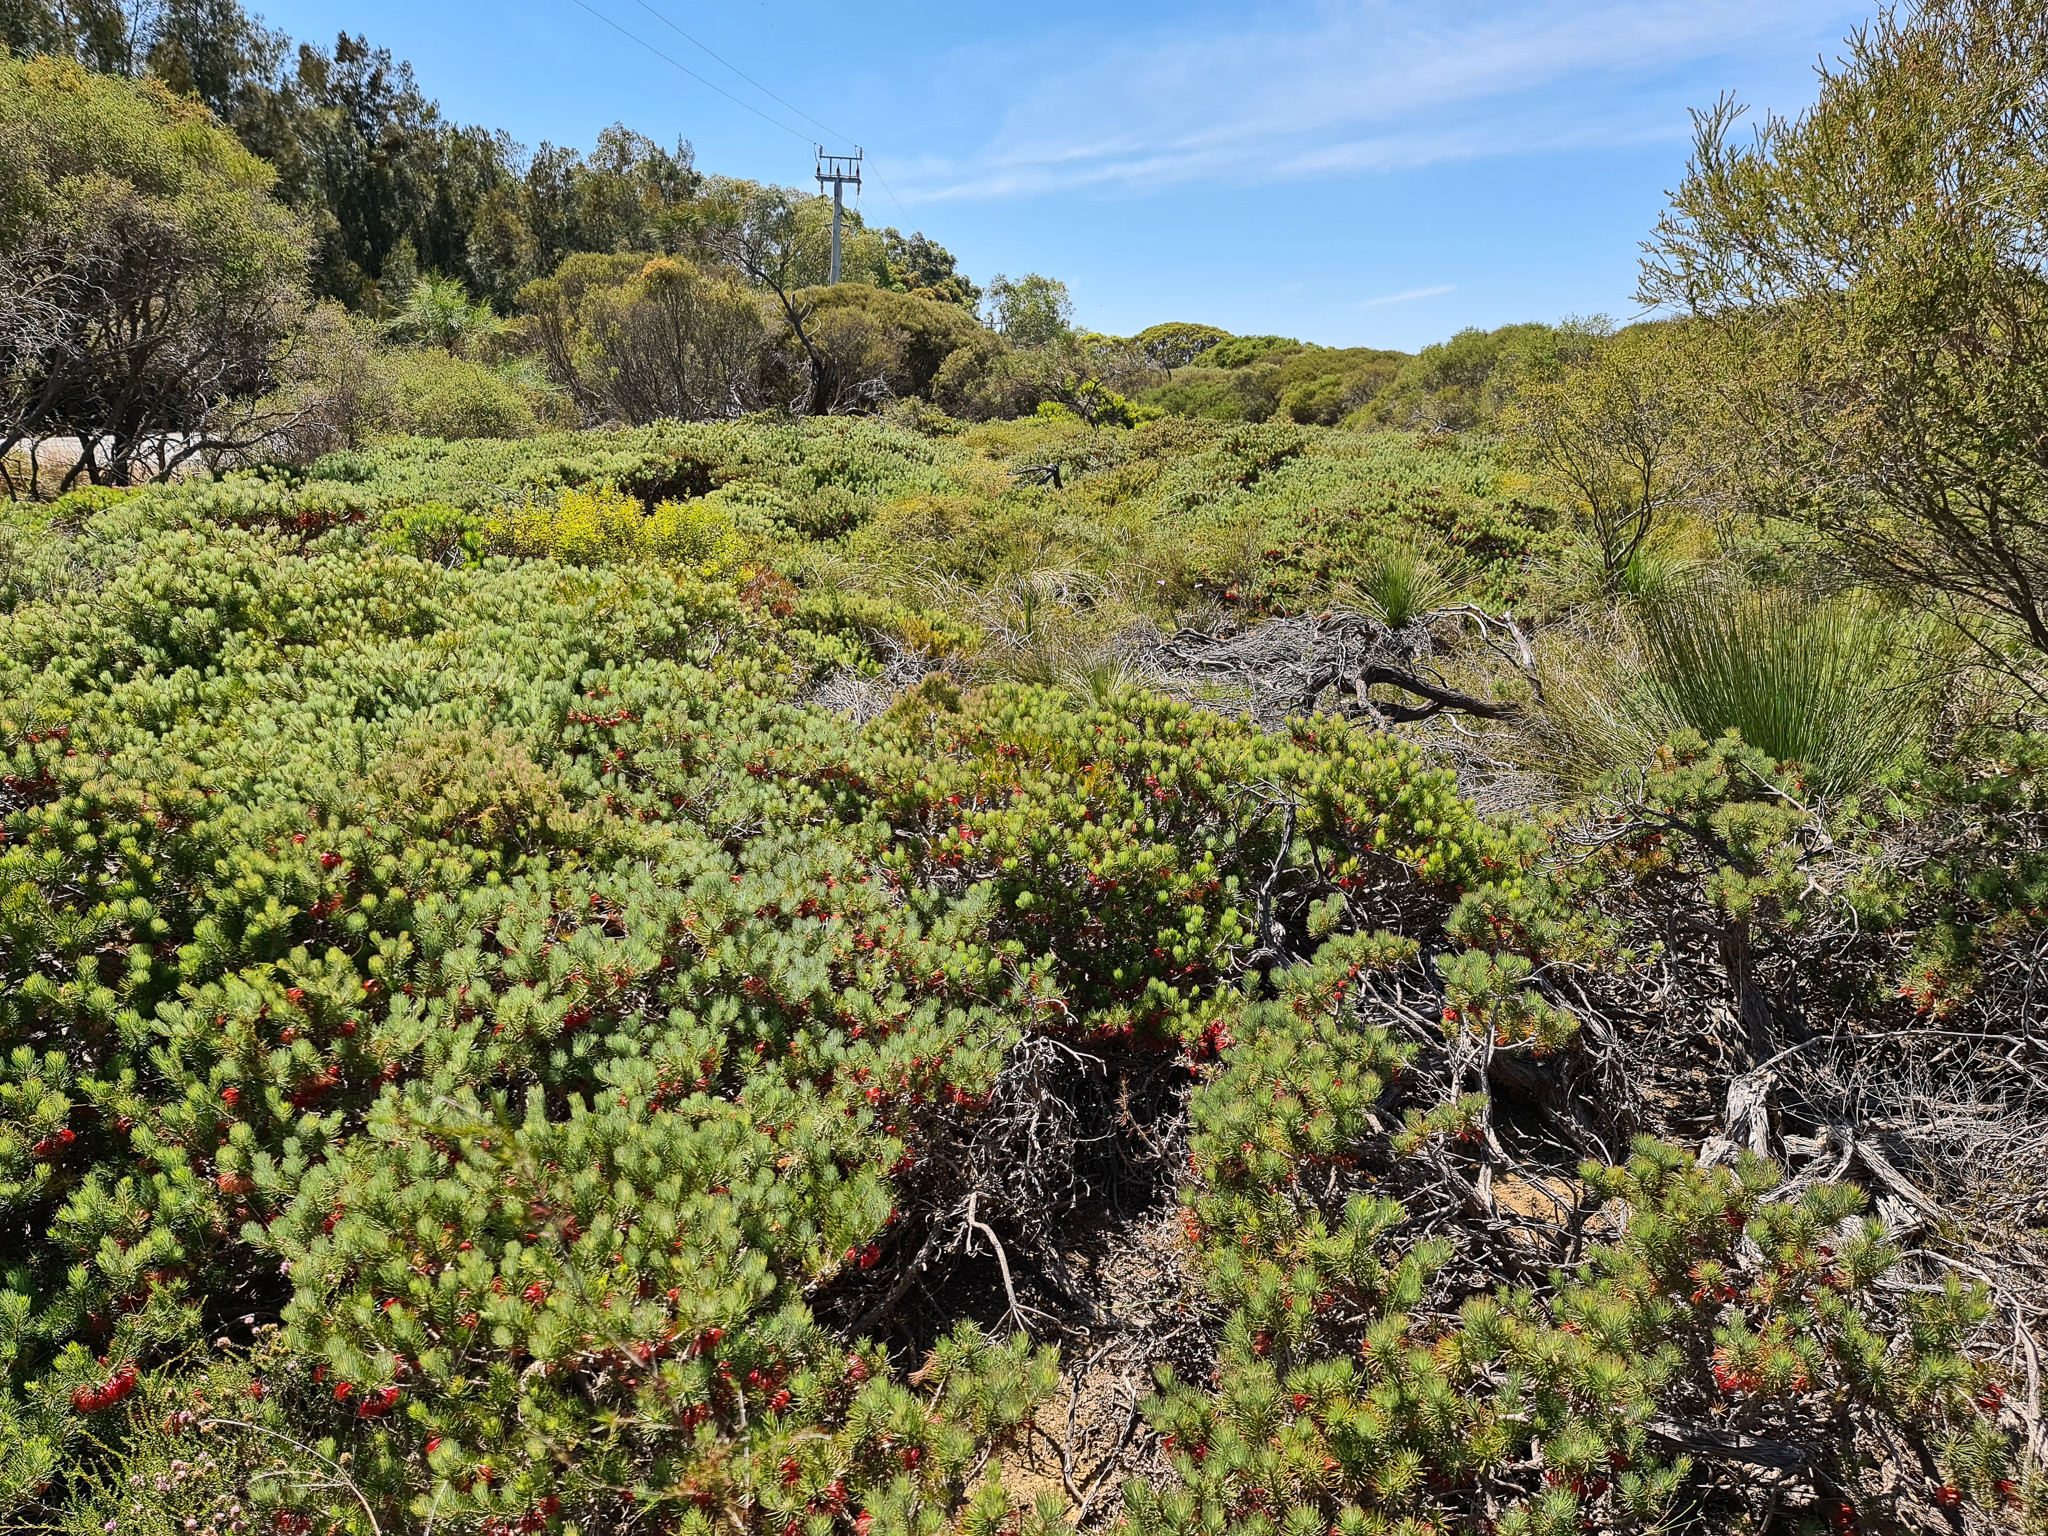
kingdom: Plantae
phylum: Tracheophyta
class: Magnoliopsida
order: Myrtales
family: Myrtaceae
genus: Melaleuca
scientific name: Melaleuca quadrifida
